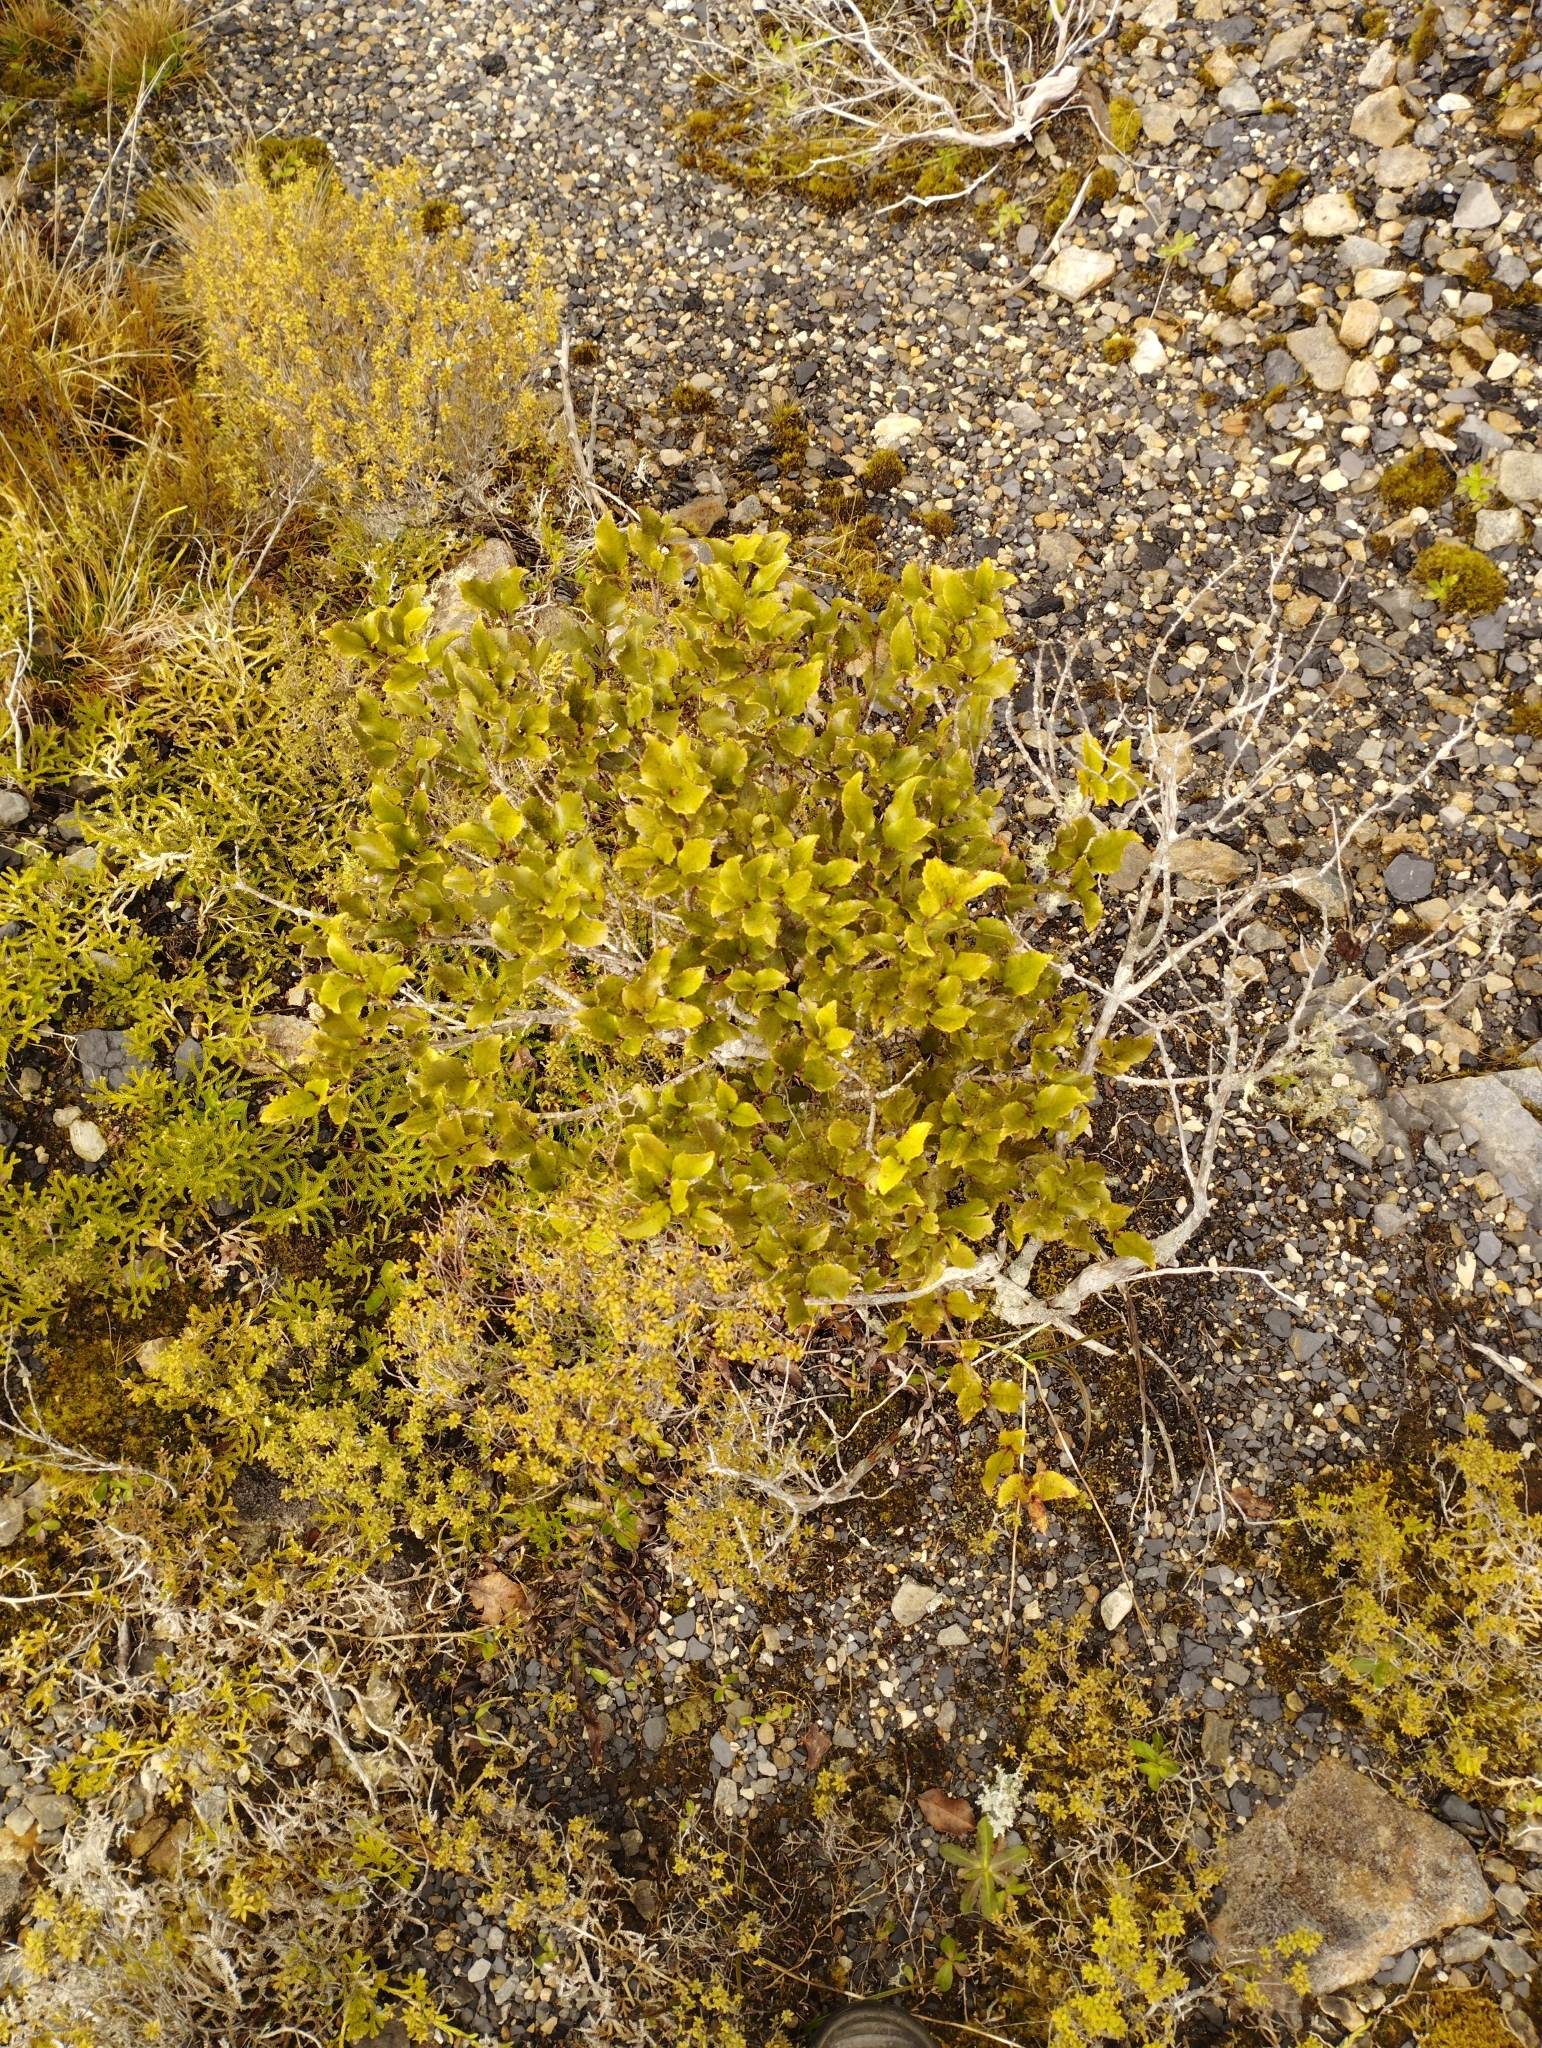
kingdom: Plantae
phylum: Tracheophyta
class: Magnoliopsida
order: Oxalidales
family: Cunoniaceae
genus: Pterophylla
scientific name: Pterophylla racemosa
